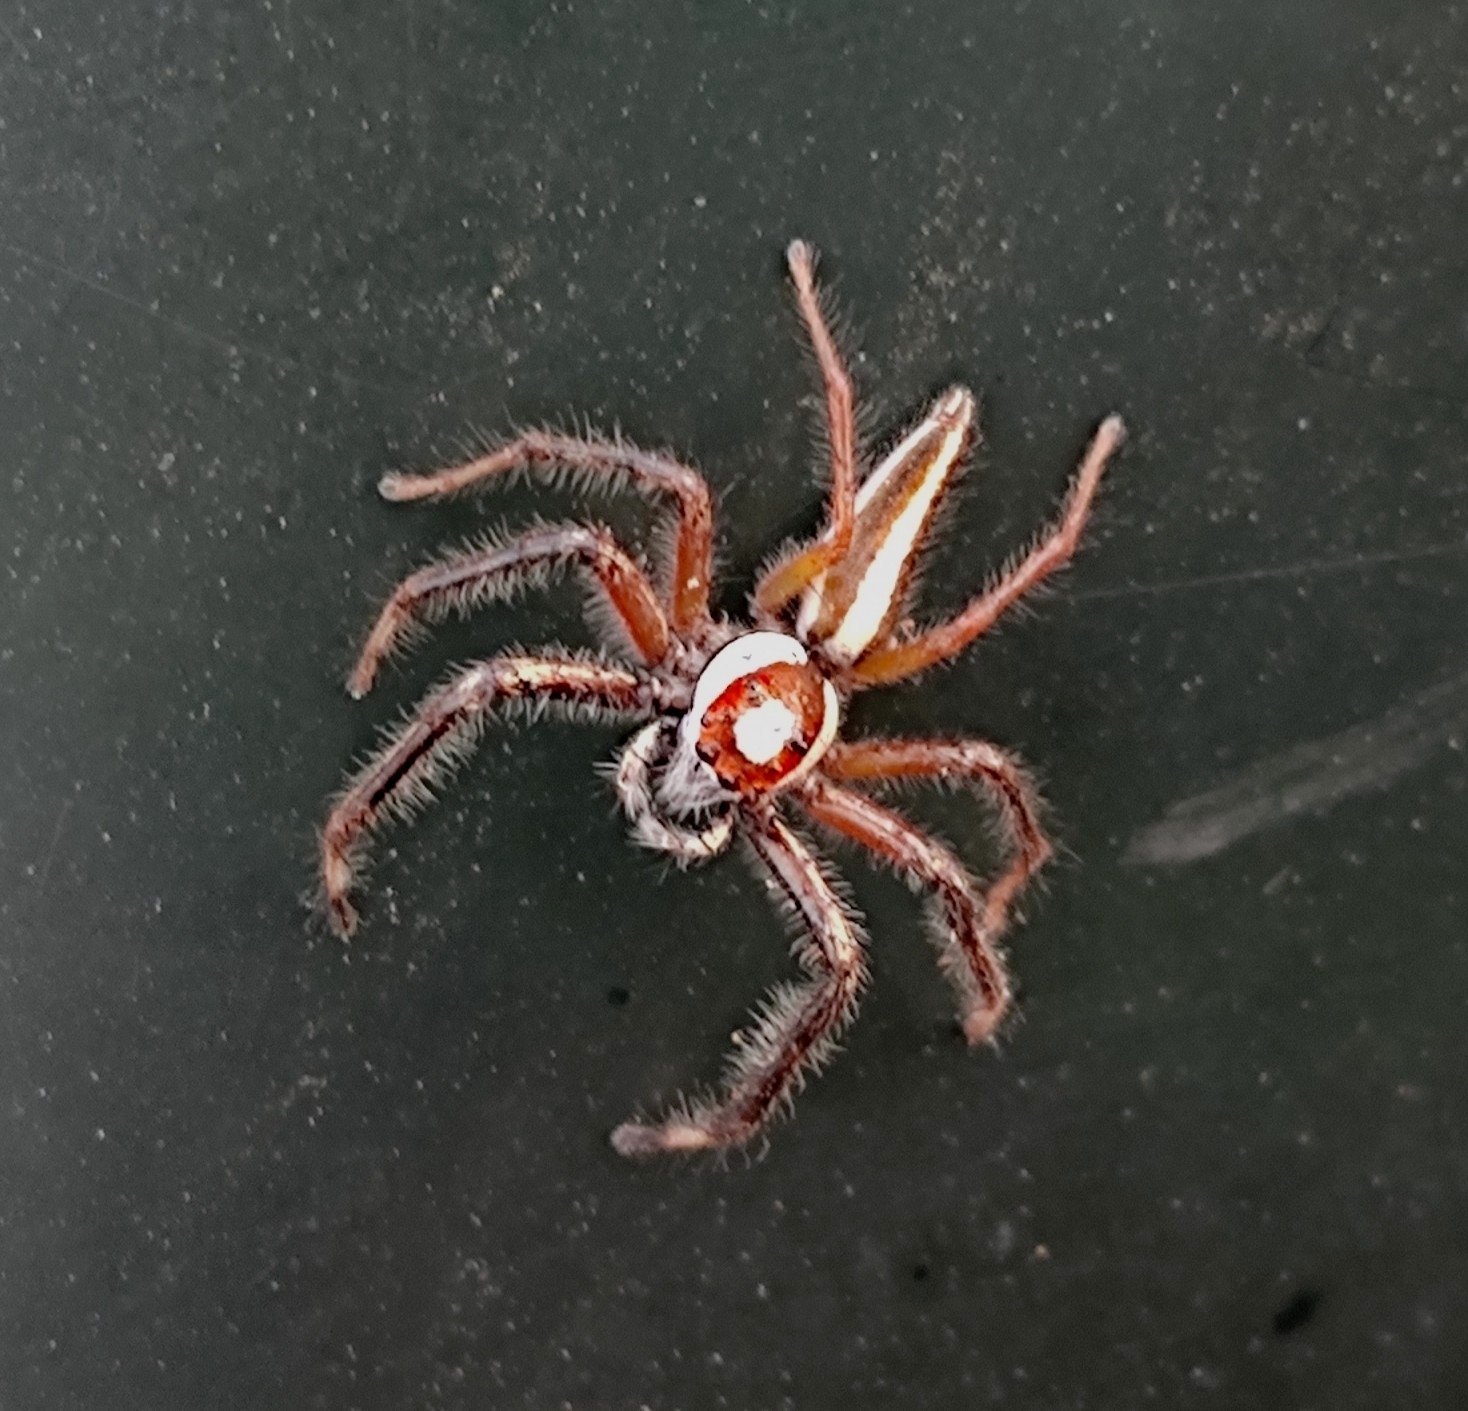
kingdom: Animalia
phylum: Arthropoda
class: Arachnida
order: Araneae
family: Salticidae
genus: Telamonia
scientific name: Telamonia dimidiata
